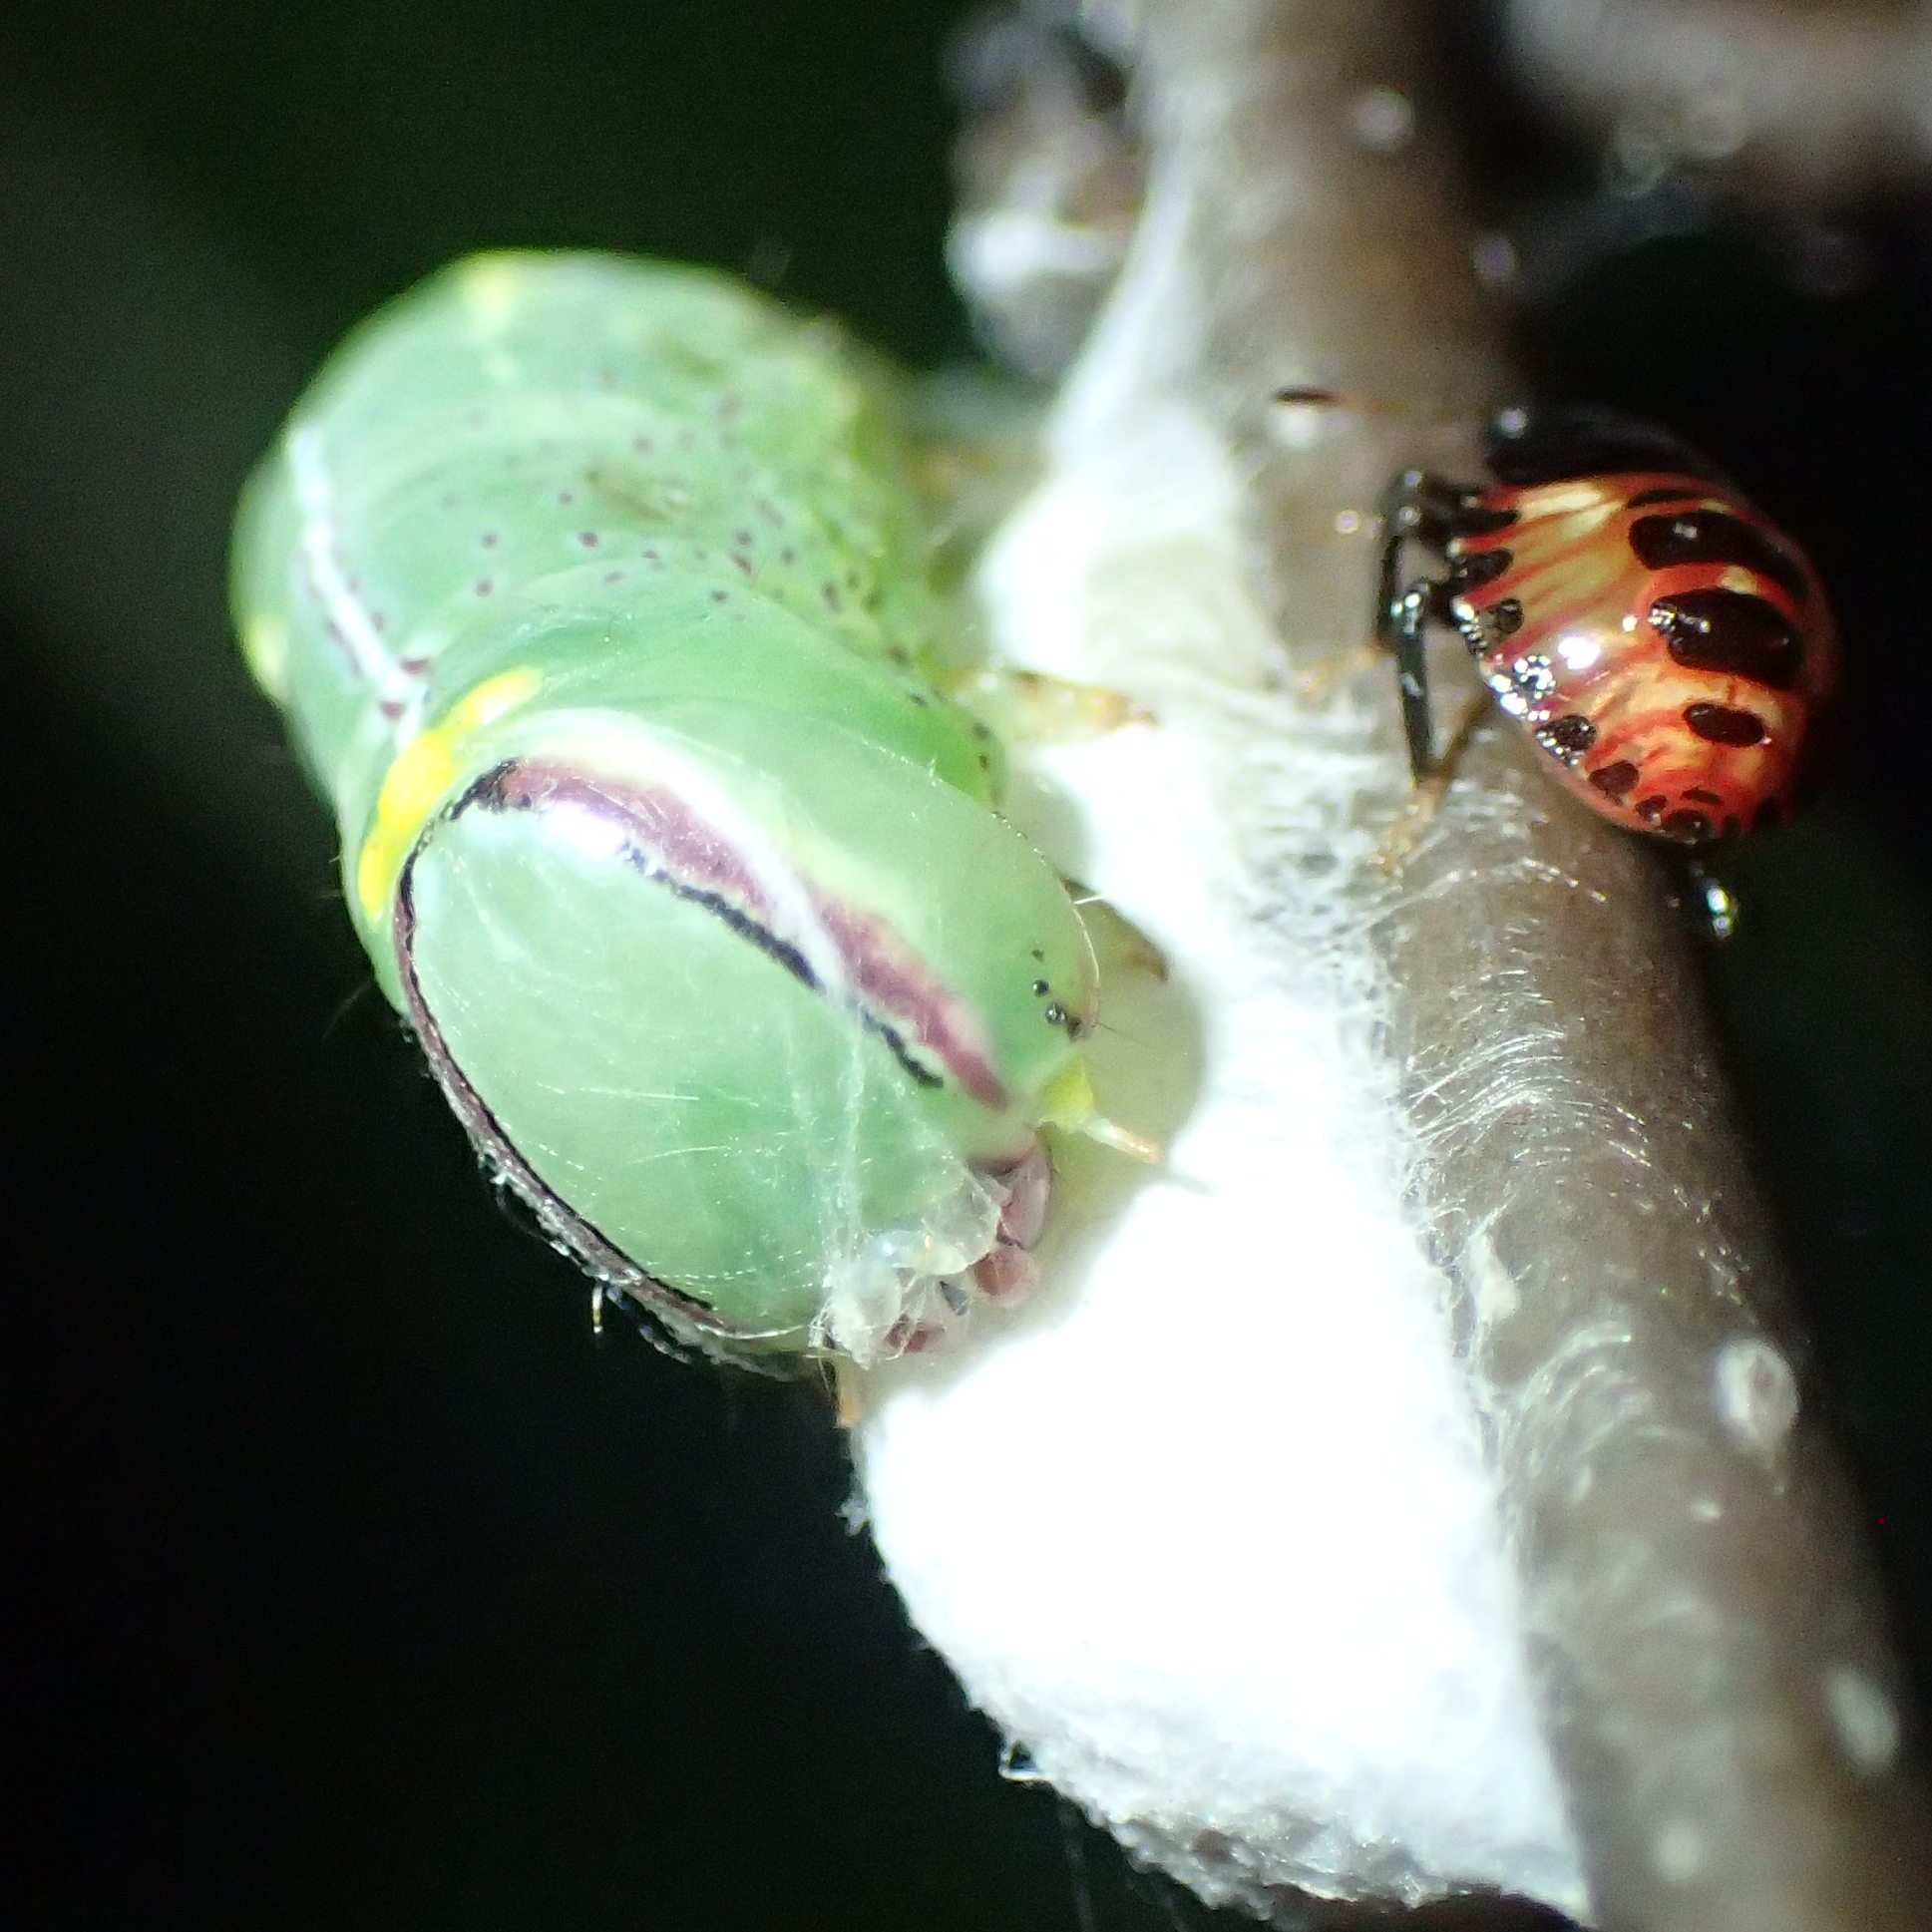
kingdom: Animalia
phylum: Arthropoda
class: Insecta
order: Lepidoptera
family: Notodontidae
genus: Disphragis
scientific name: Disphragis Cecrita guttivitta
